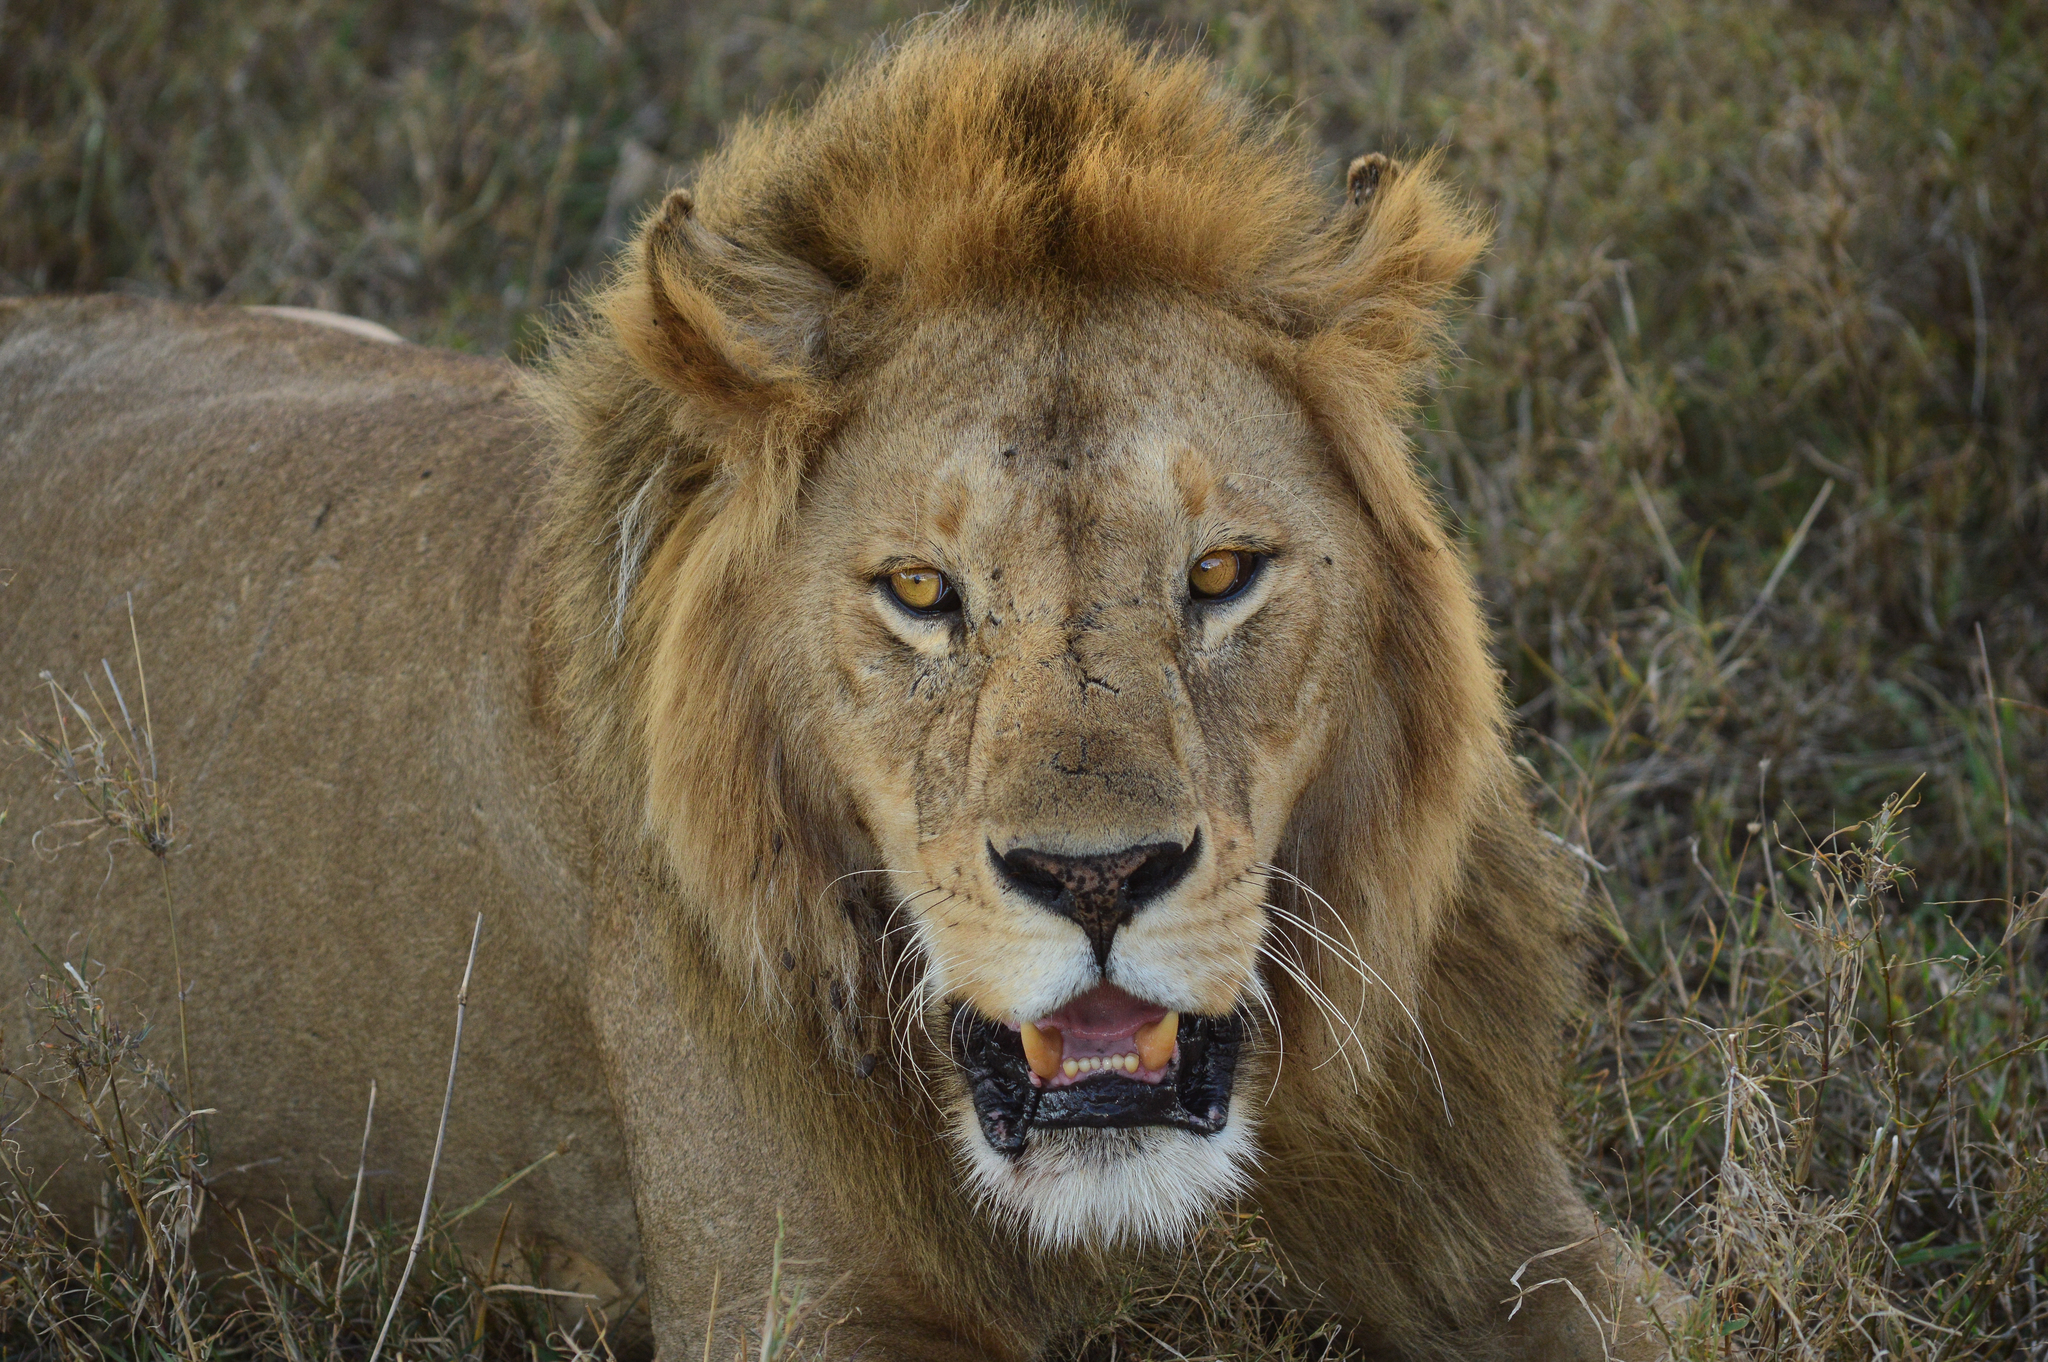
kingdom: Animalia
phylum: Chordata
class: Mammalia
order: Carnivora
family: Felidae
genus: Panthera
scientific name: Panthera leo
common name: Lion
